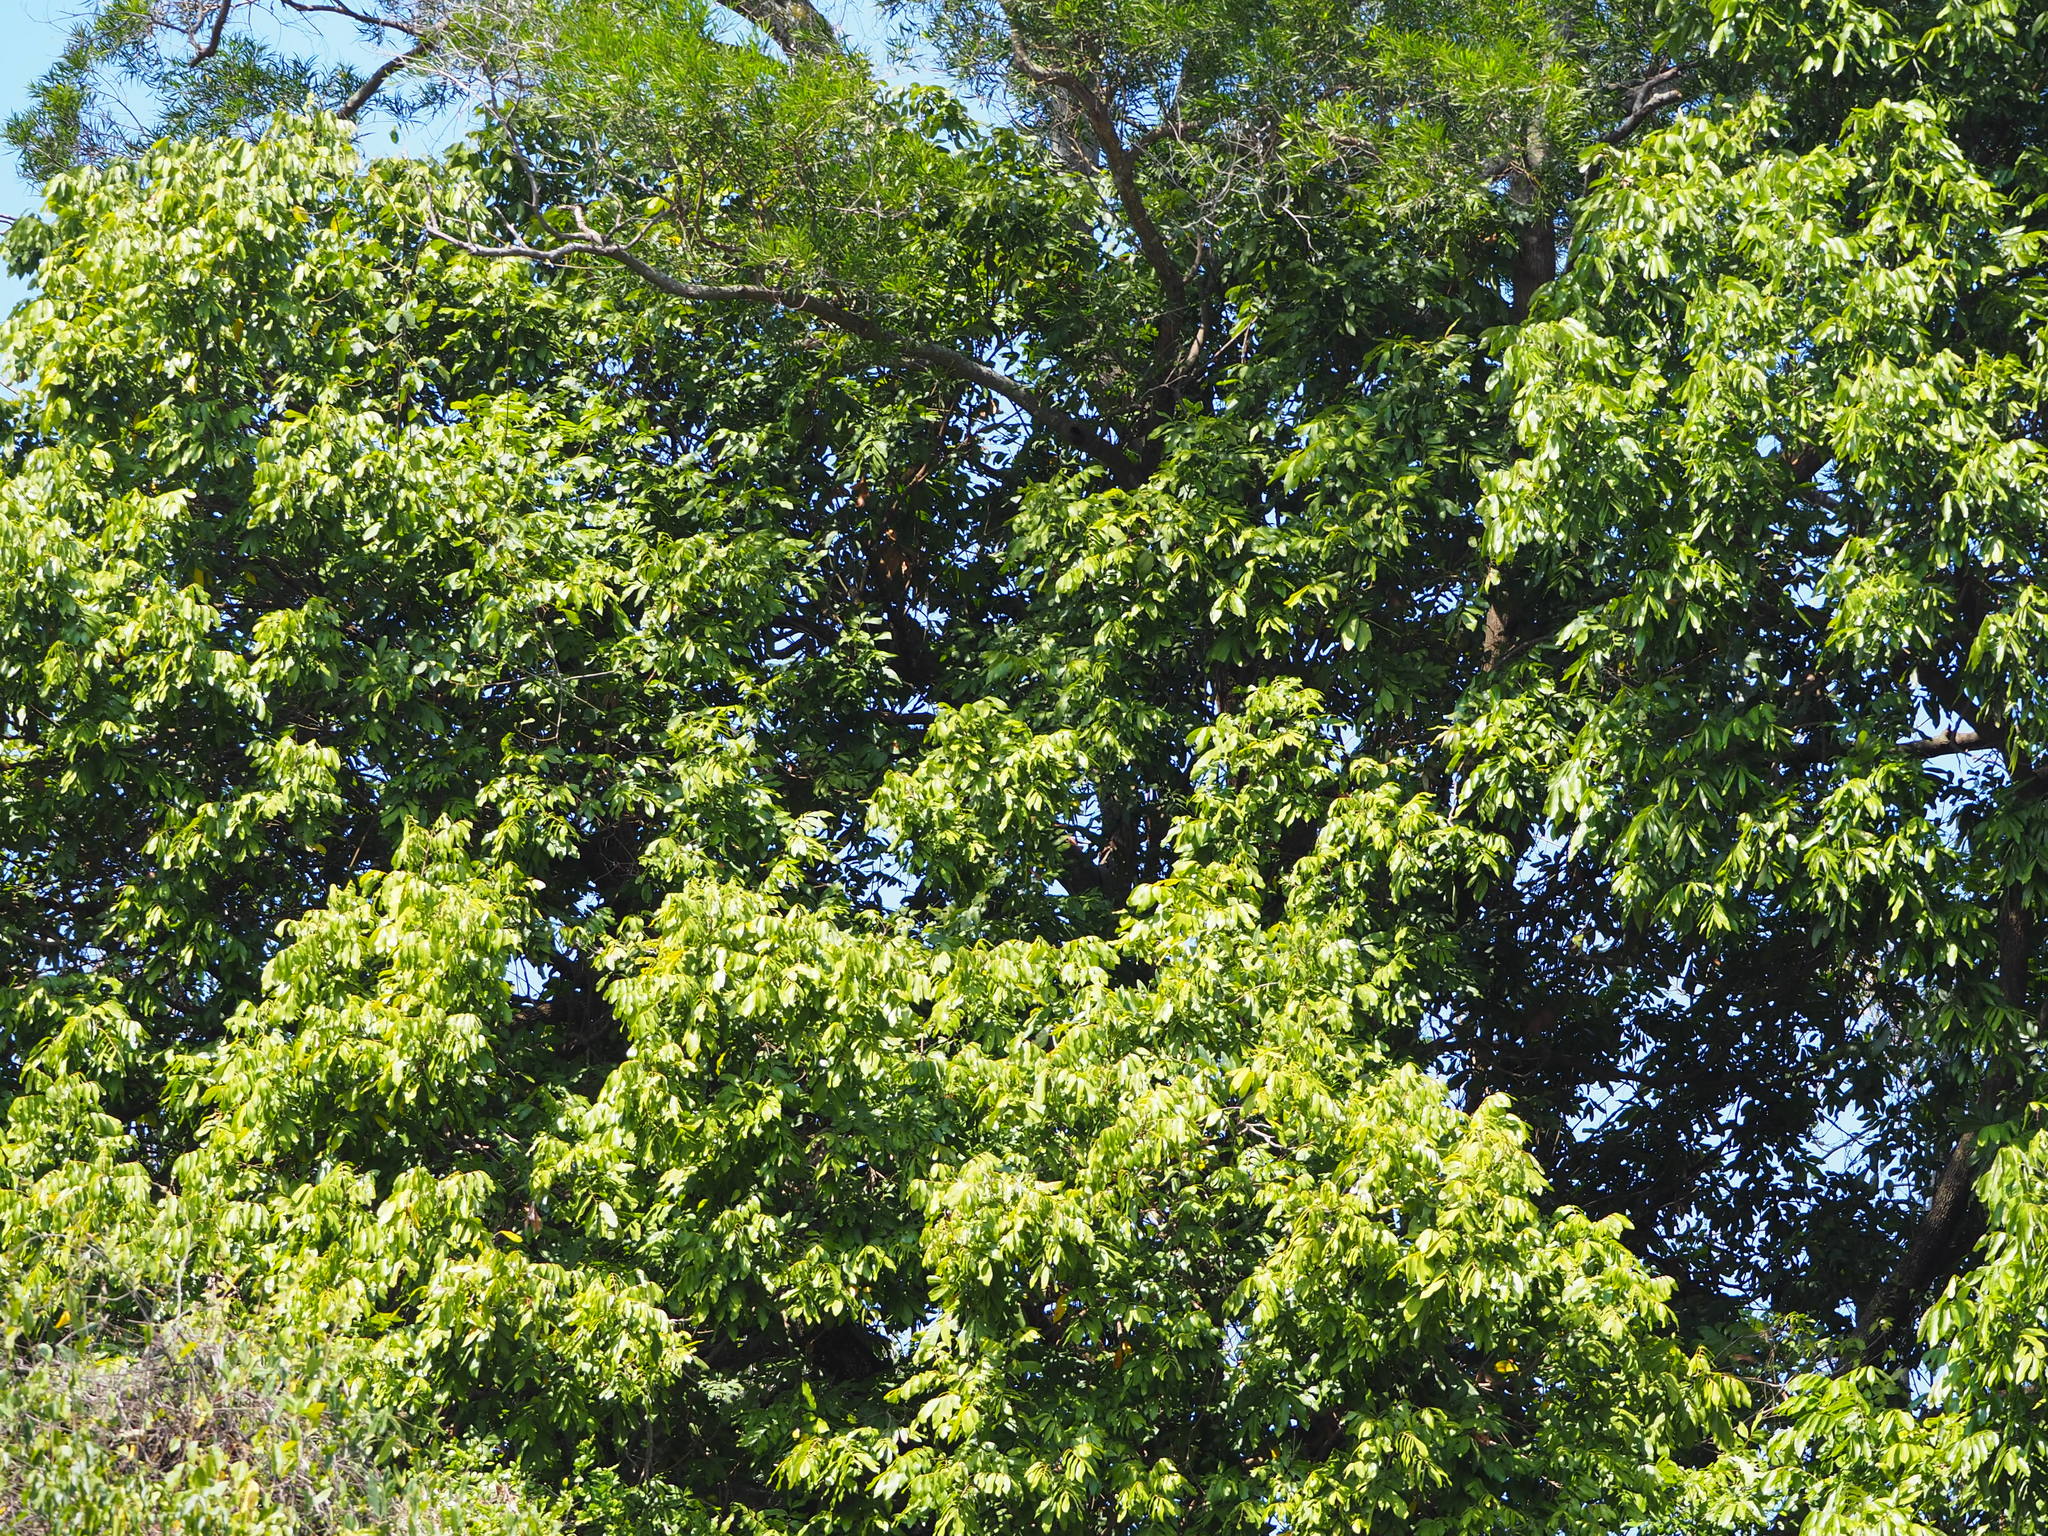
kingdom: Plantae
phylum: Tracheophyta
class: Magnoliopsida
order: Sapindales
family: Sapindaceae
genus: Dimocarpus
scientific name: Dimocarpus longan
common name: Longan
